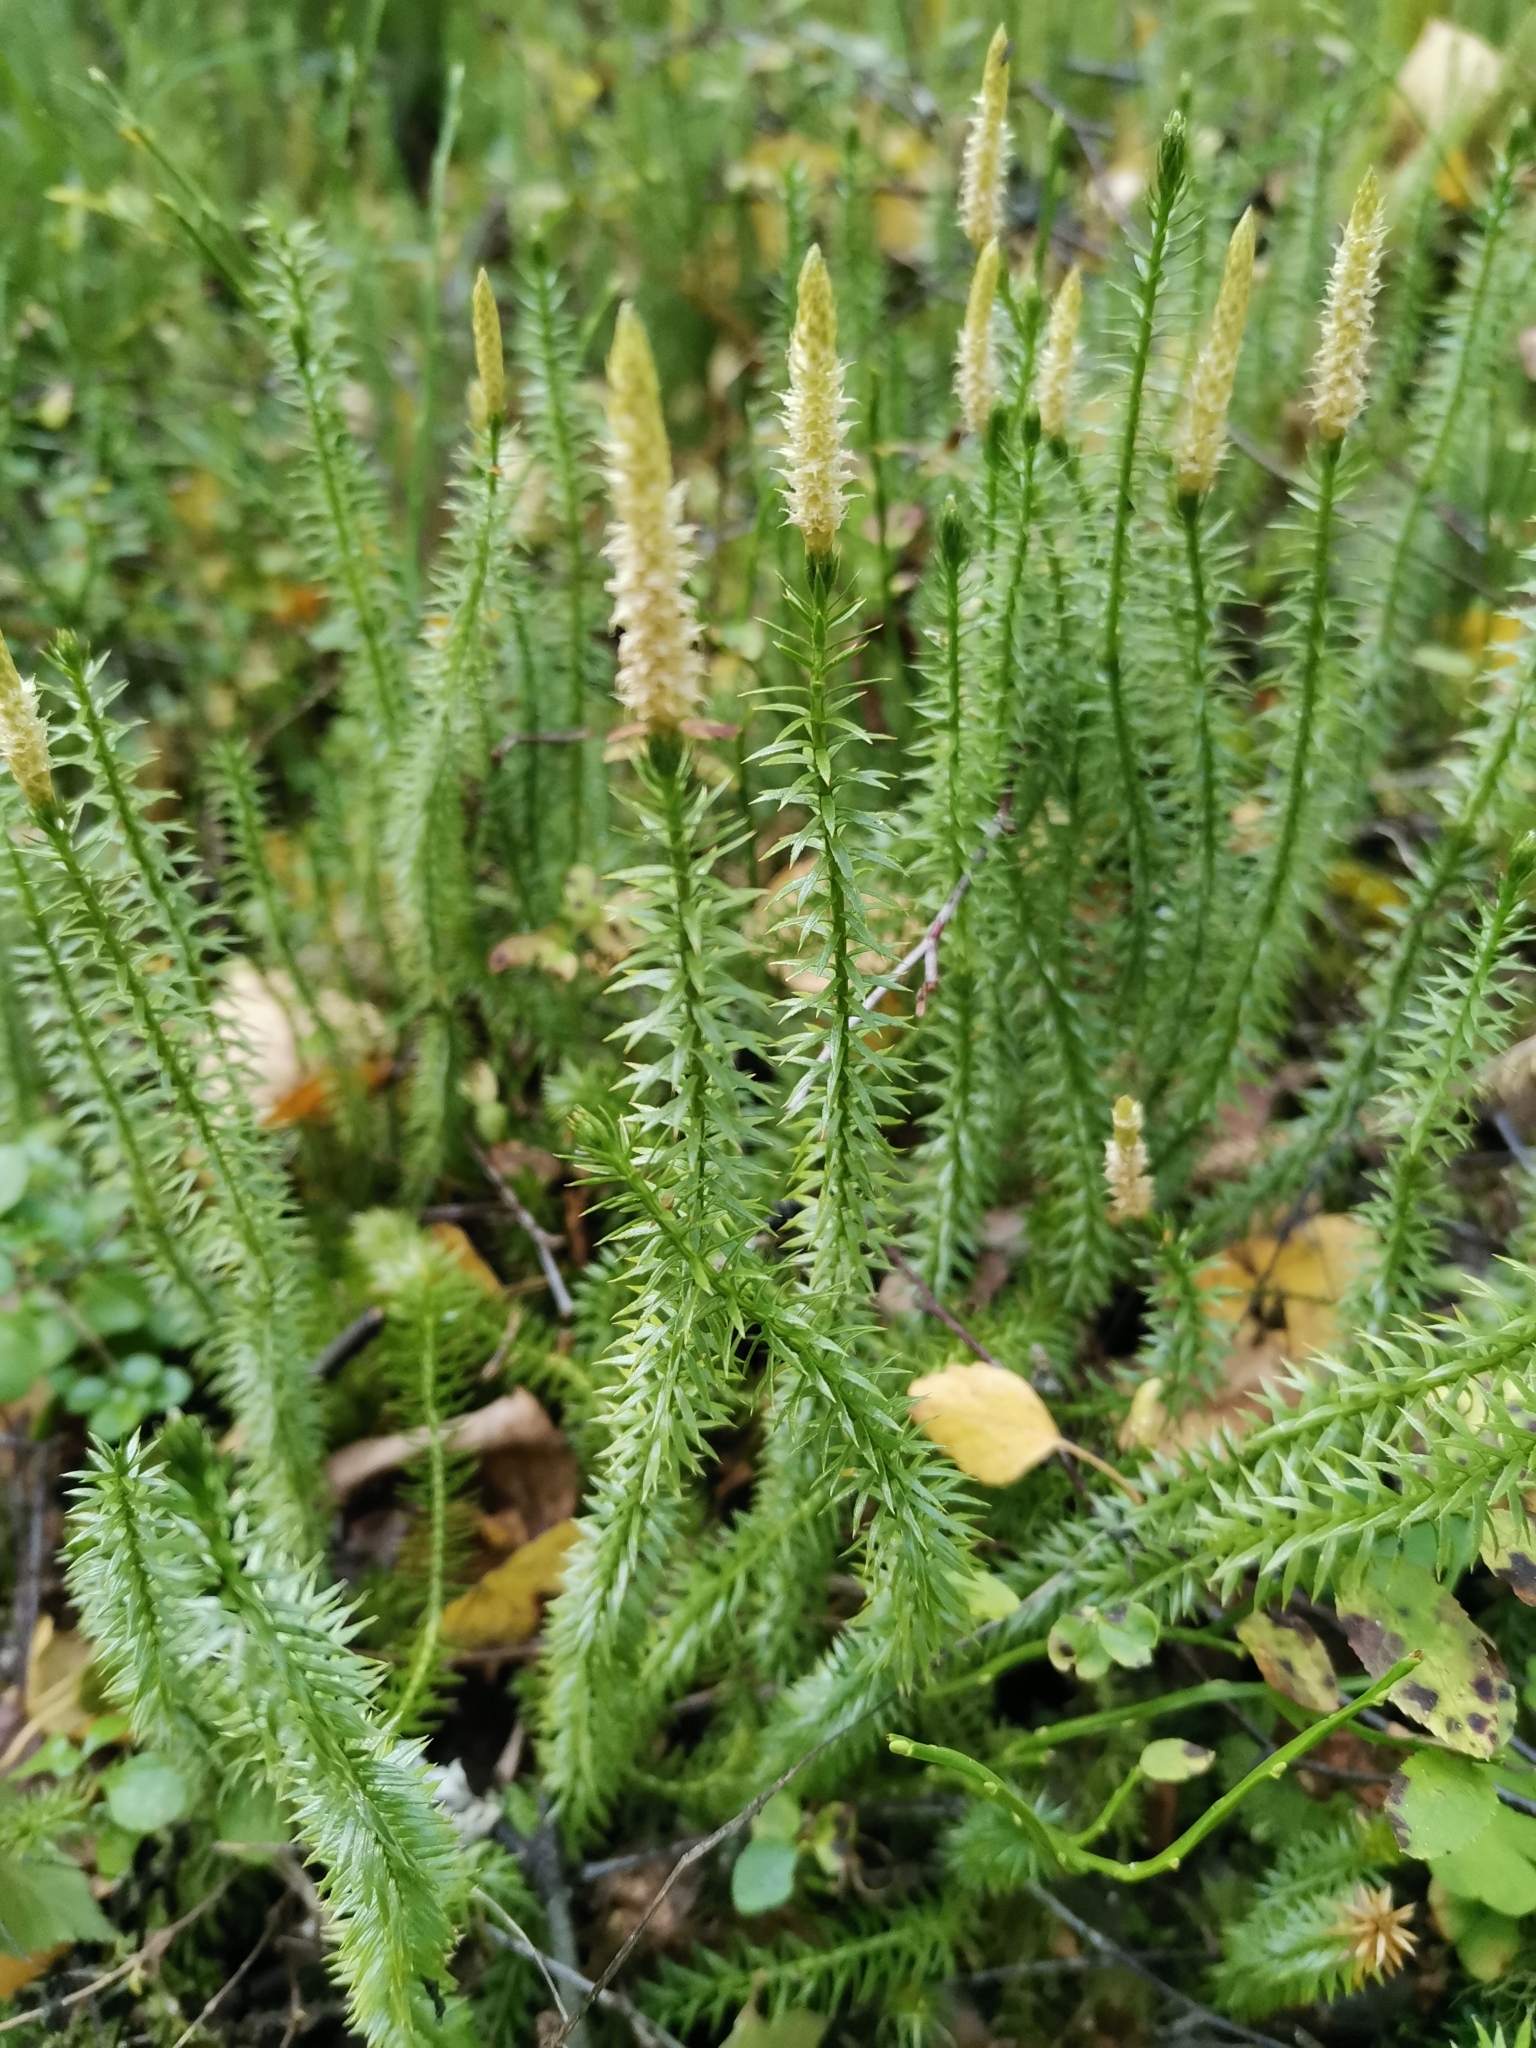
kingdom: Plantae
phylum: Tracheophyta
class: Lycopodiopsida
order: Lycopodiales
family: Lycopodiaceae
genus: Spinulum
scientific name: Spinulum annotinum
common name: Interrupted club-moss
